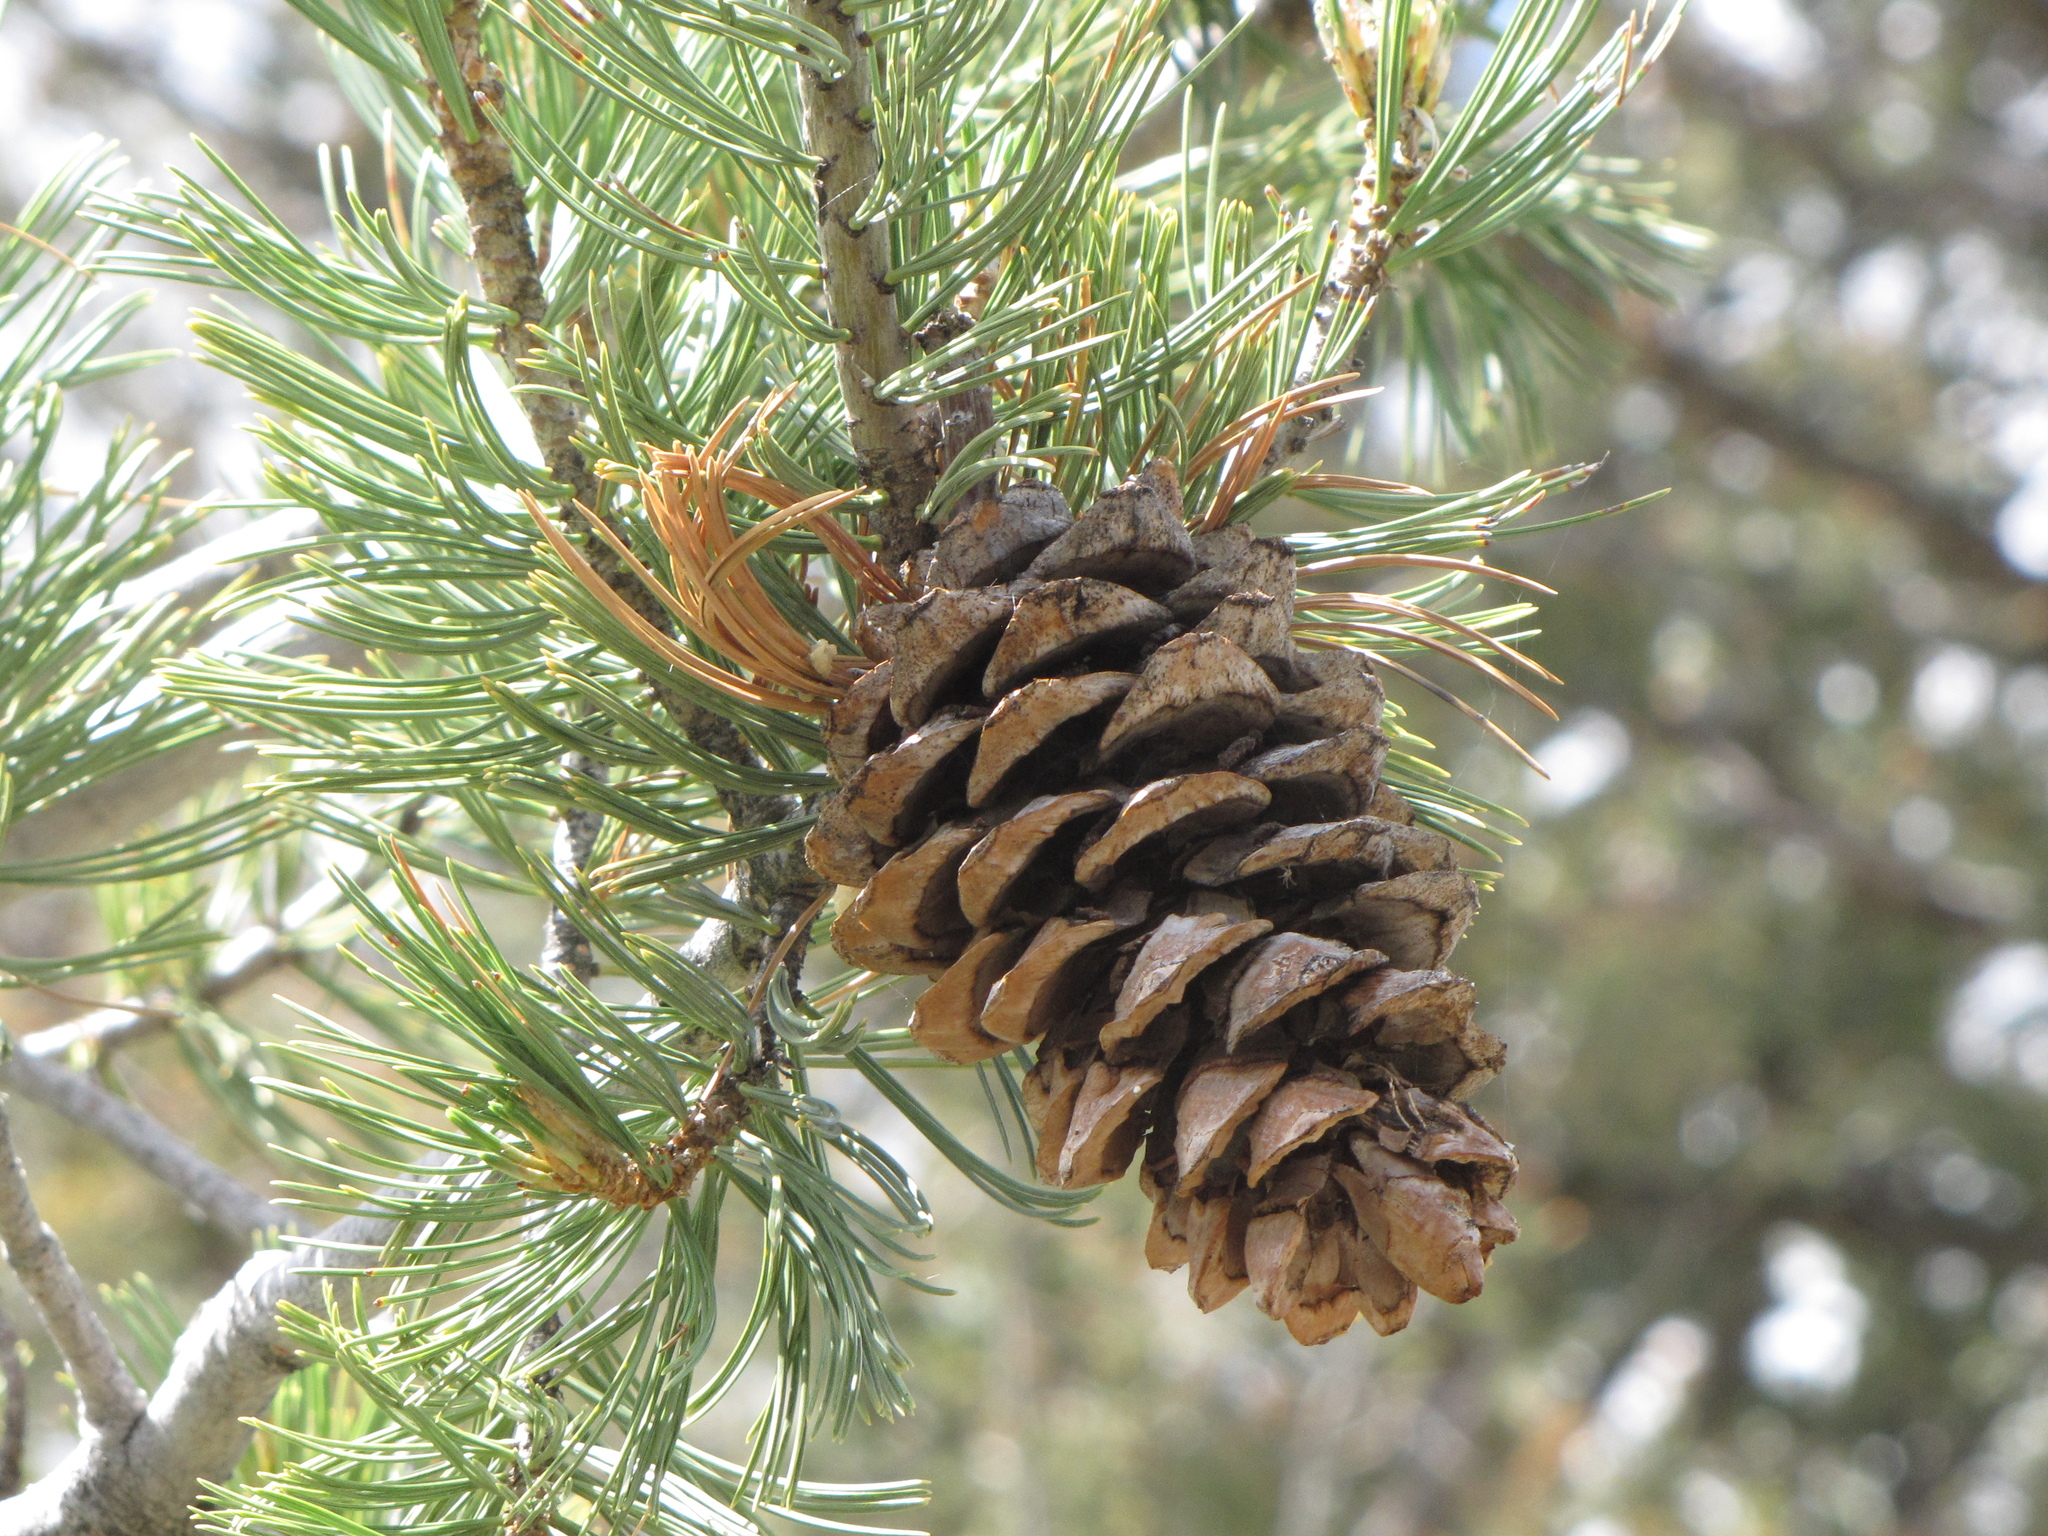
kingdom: Plantae
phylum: Tracheophyta
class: Pinopsida
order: Pinales
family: Pinaceae
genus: Pinus
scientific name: Pinus flexilis
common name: Limber pine
